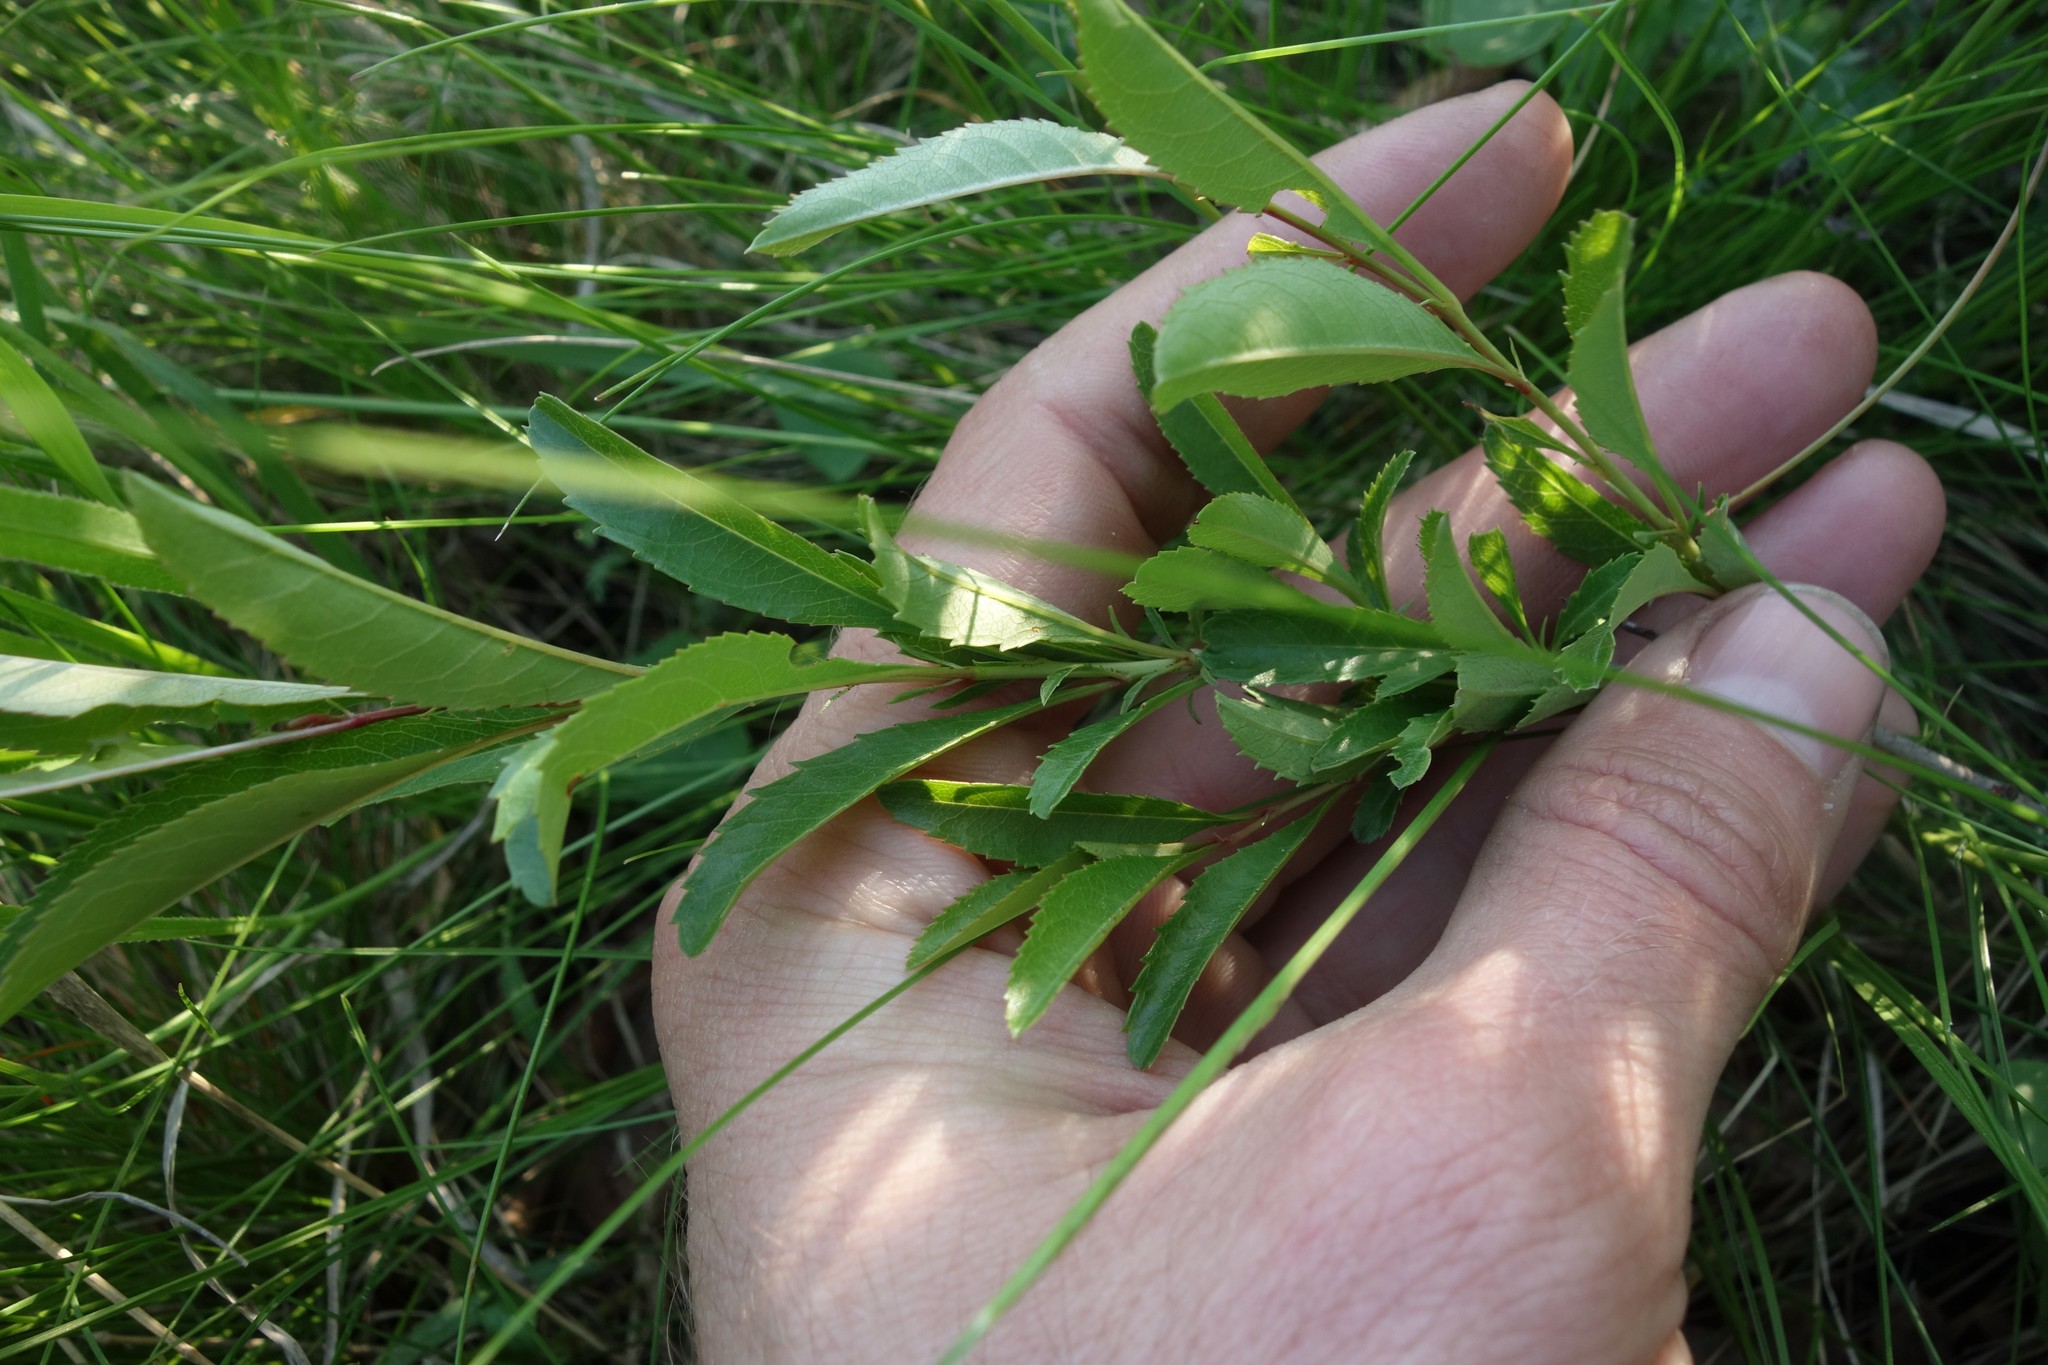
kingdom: Plantae
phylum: Tracheophyta
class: Magnoliopsida
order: Rosales
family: Rosaceae
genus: Prunus
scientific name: Prunus tenella
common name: Dwarf russian almond
